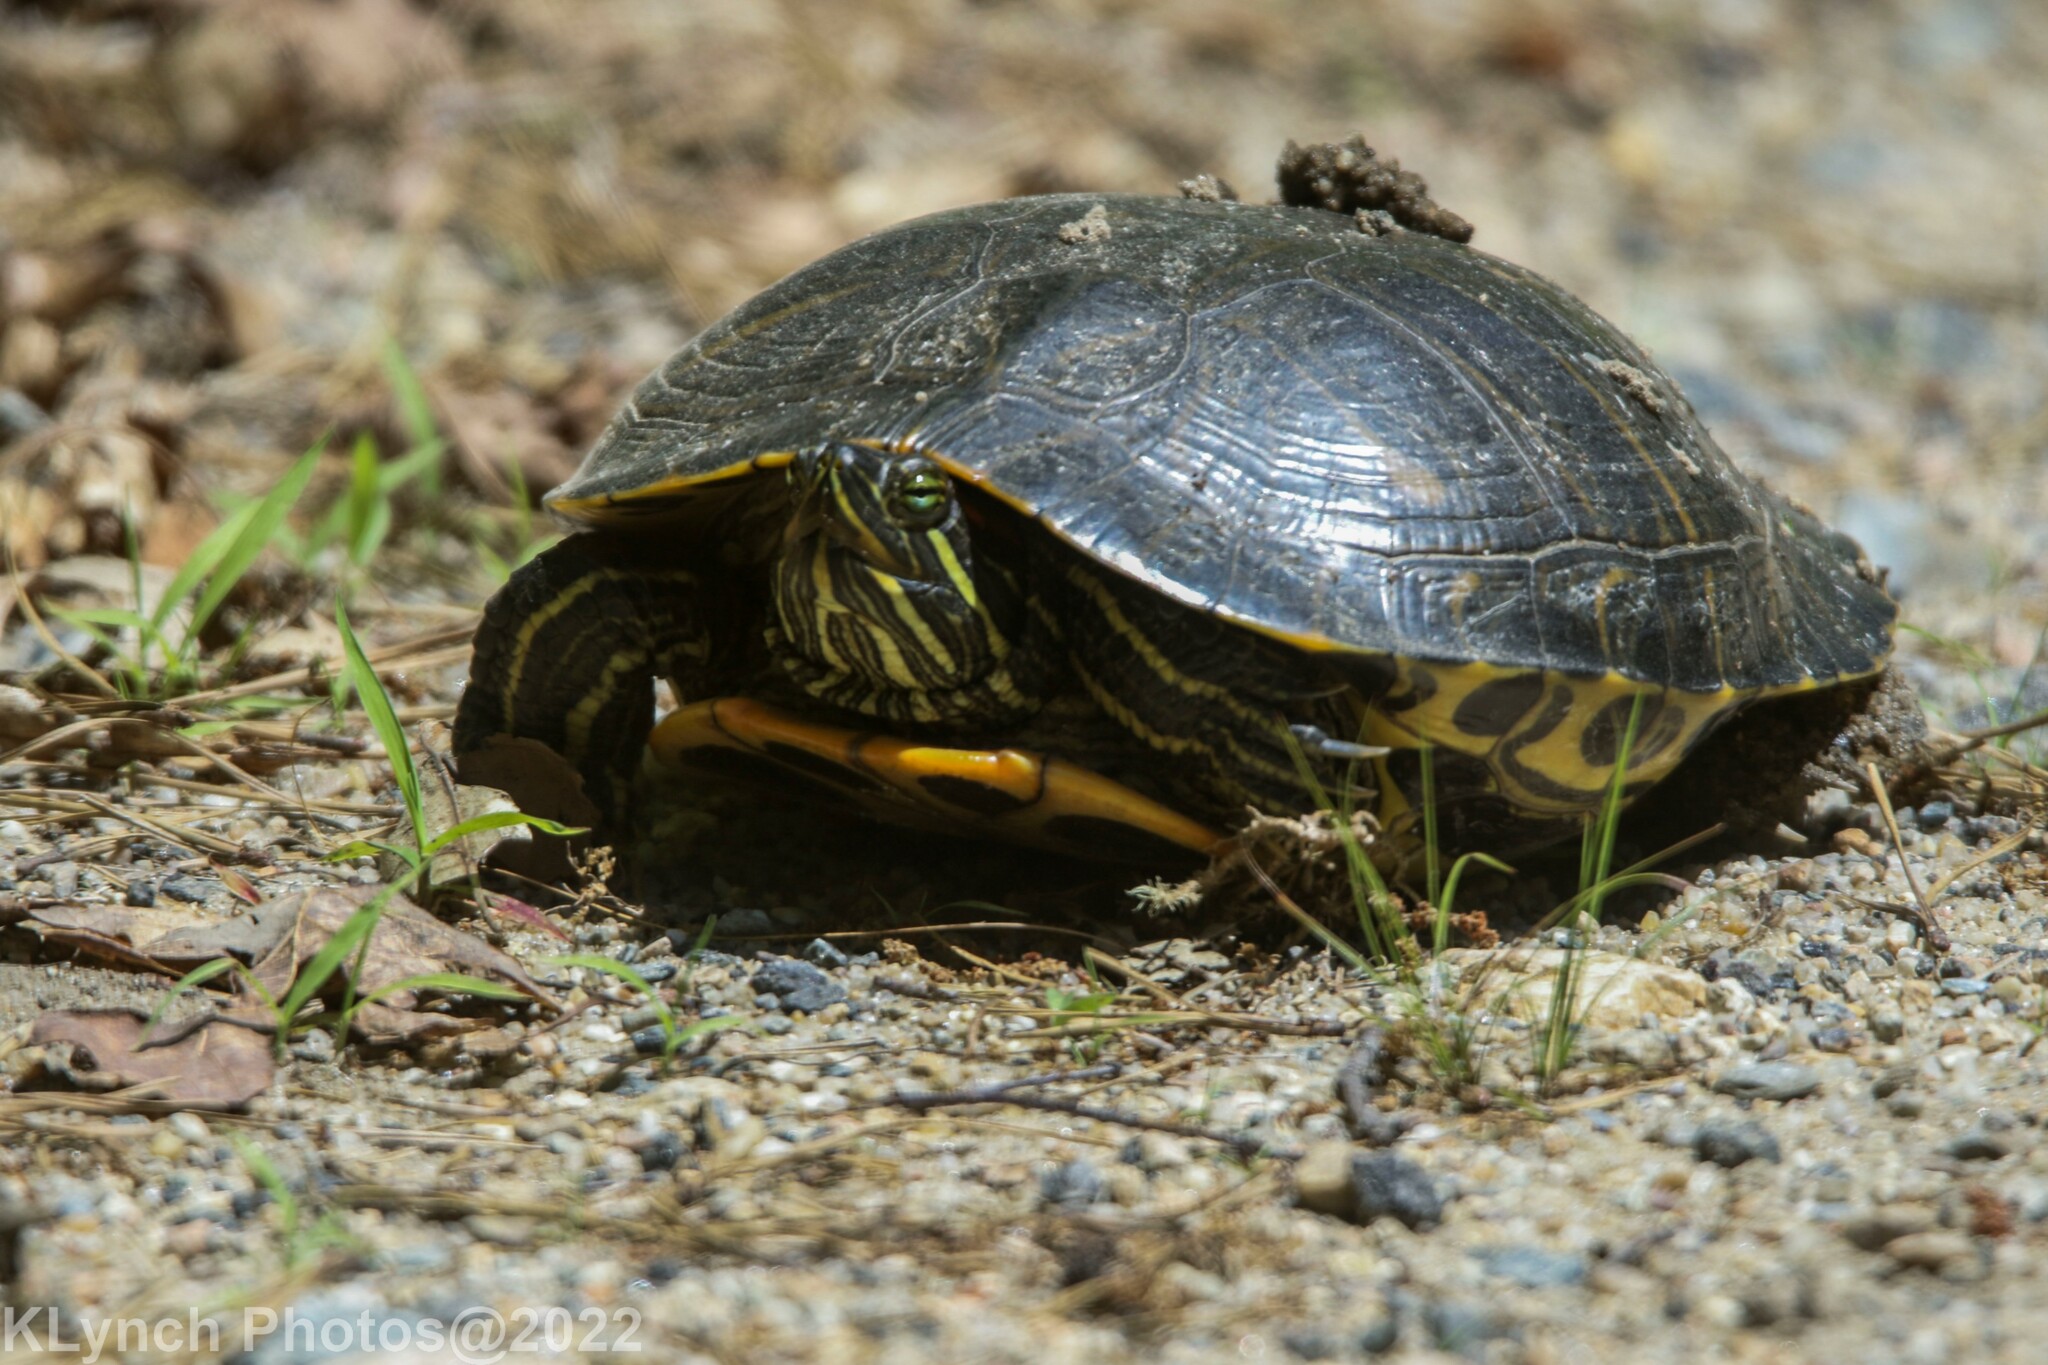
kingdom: Animalia
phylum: Chordata
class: Testudines
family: Emydidae
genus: Trachemys
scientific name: Trachemys scripta
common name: Slider
